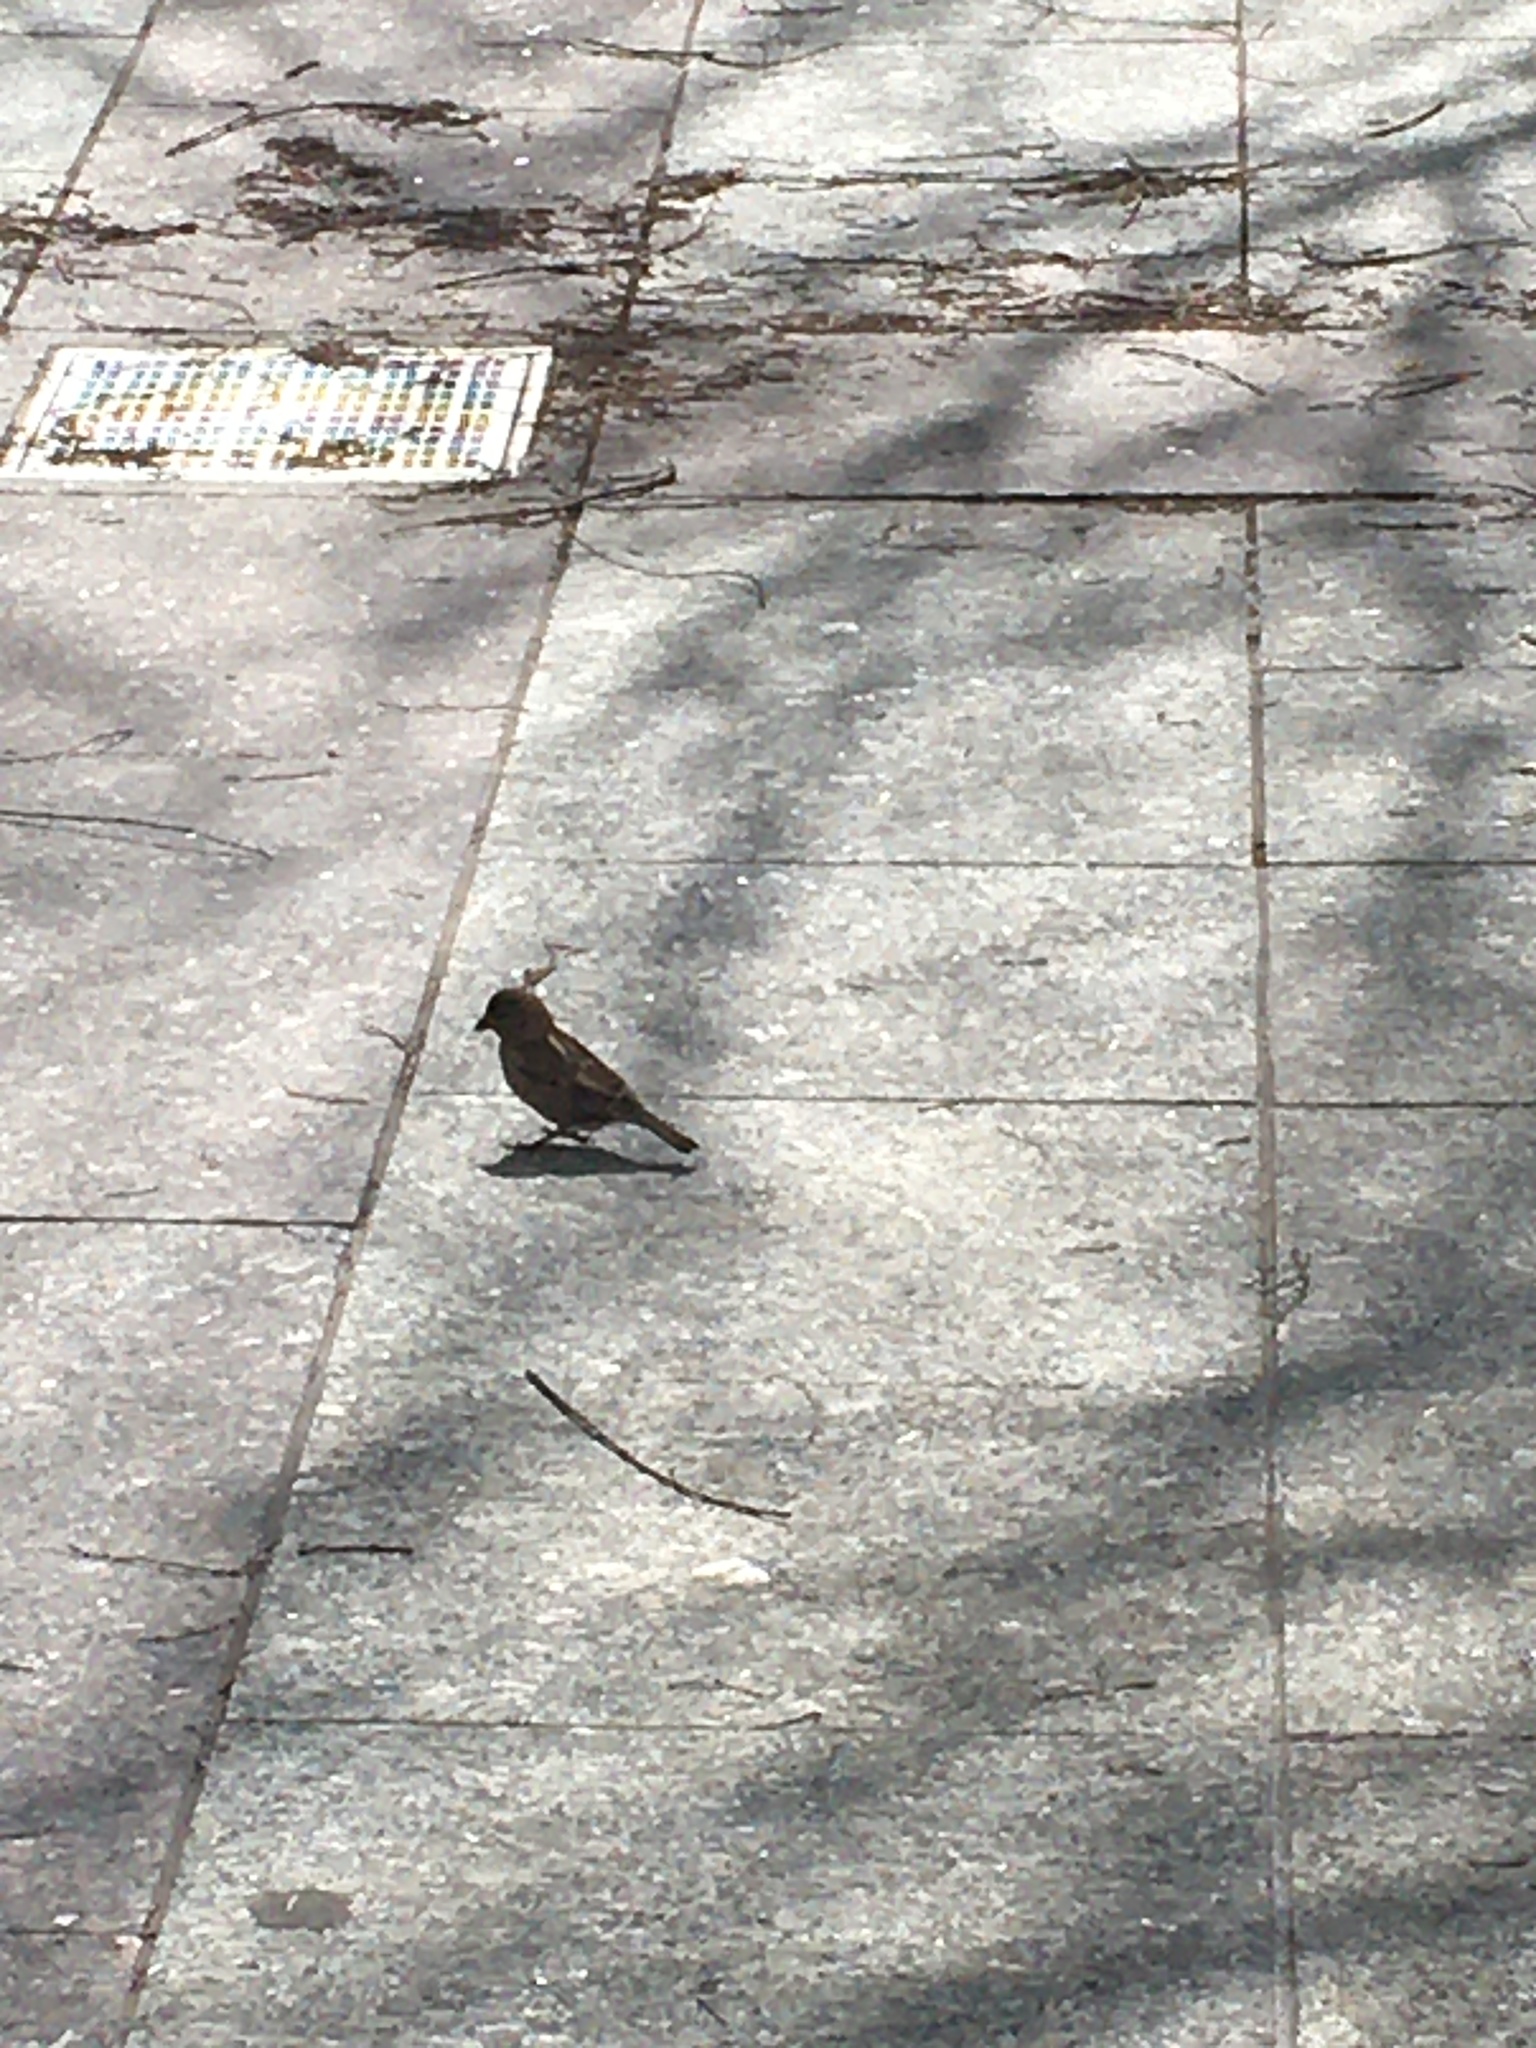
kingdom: Animalia
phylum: Chordata
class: Aves
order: Passeriformes
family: Passeridae
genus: Passer
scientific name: Passer domesticus
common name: House sparrow
